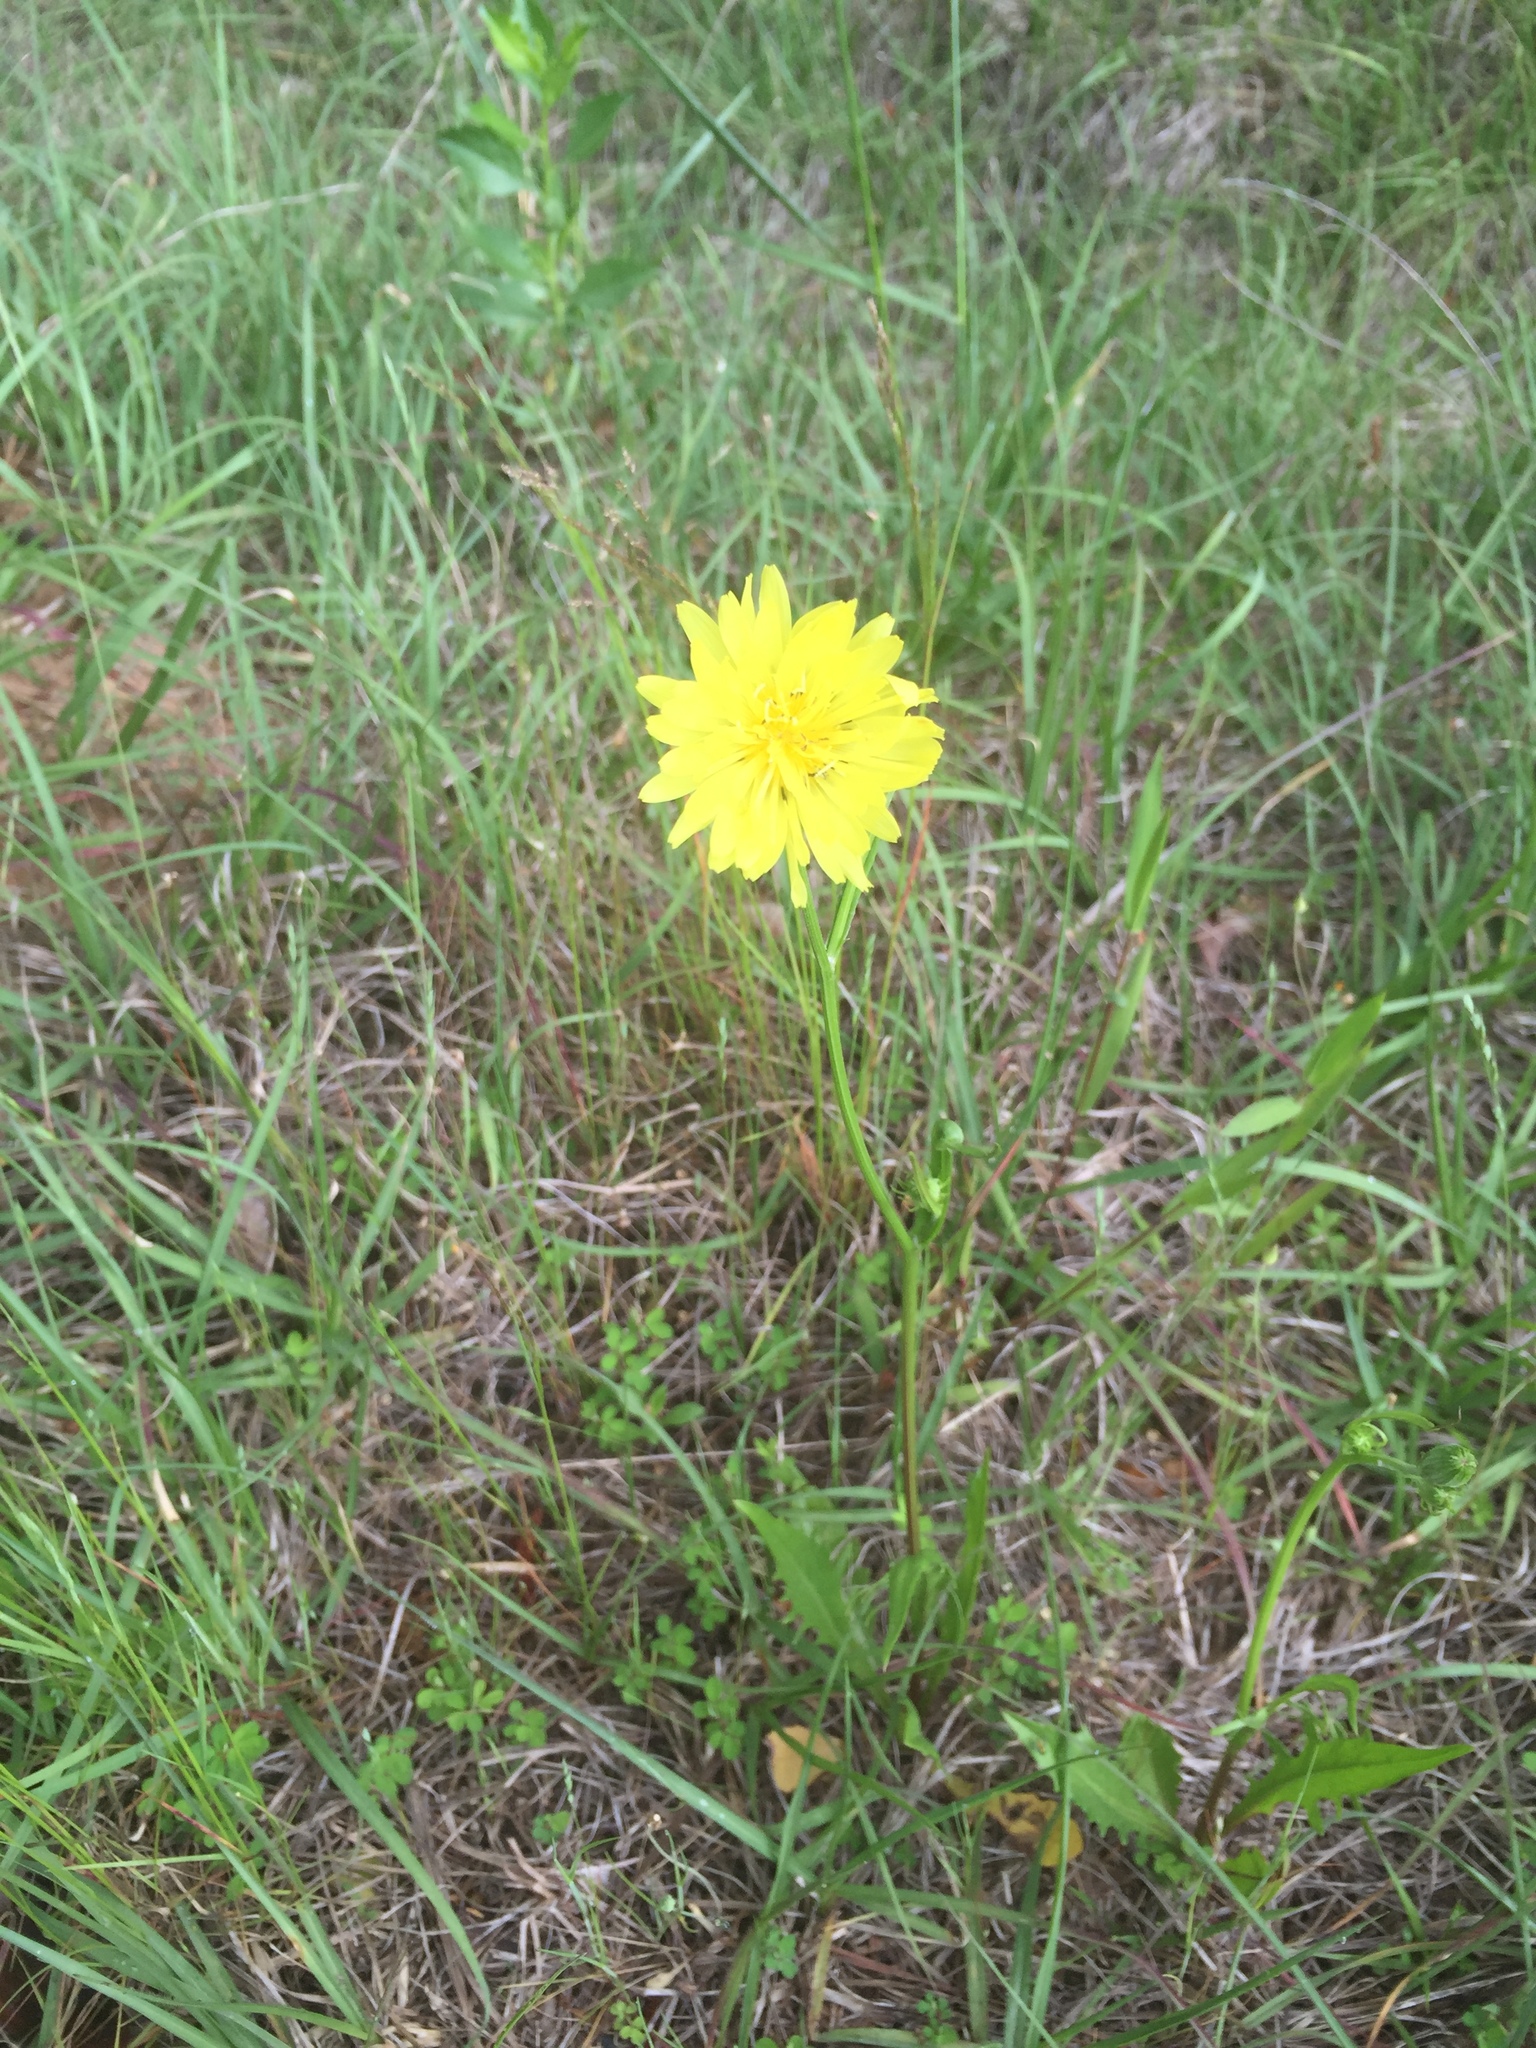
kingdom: Plantae
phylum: Tracheophyta
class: Magnoliopsida
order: Asterales
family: Asteraceae
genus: Pyrrhopappus
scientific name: Pyrrhopappus carolinianus
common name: Carolina desert-chicory
